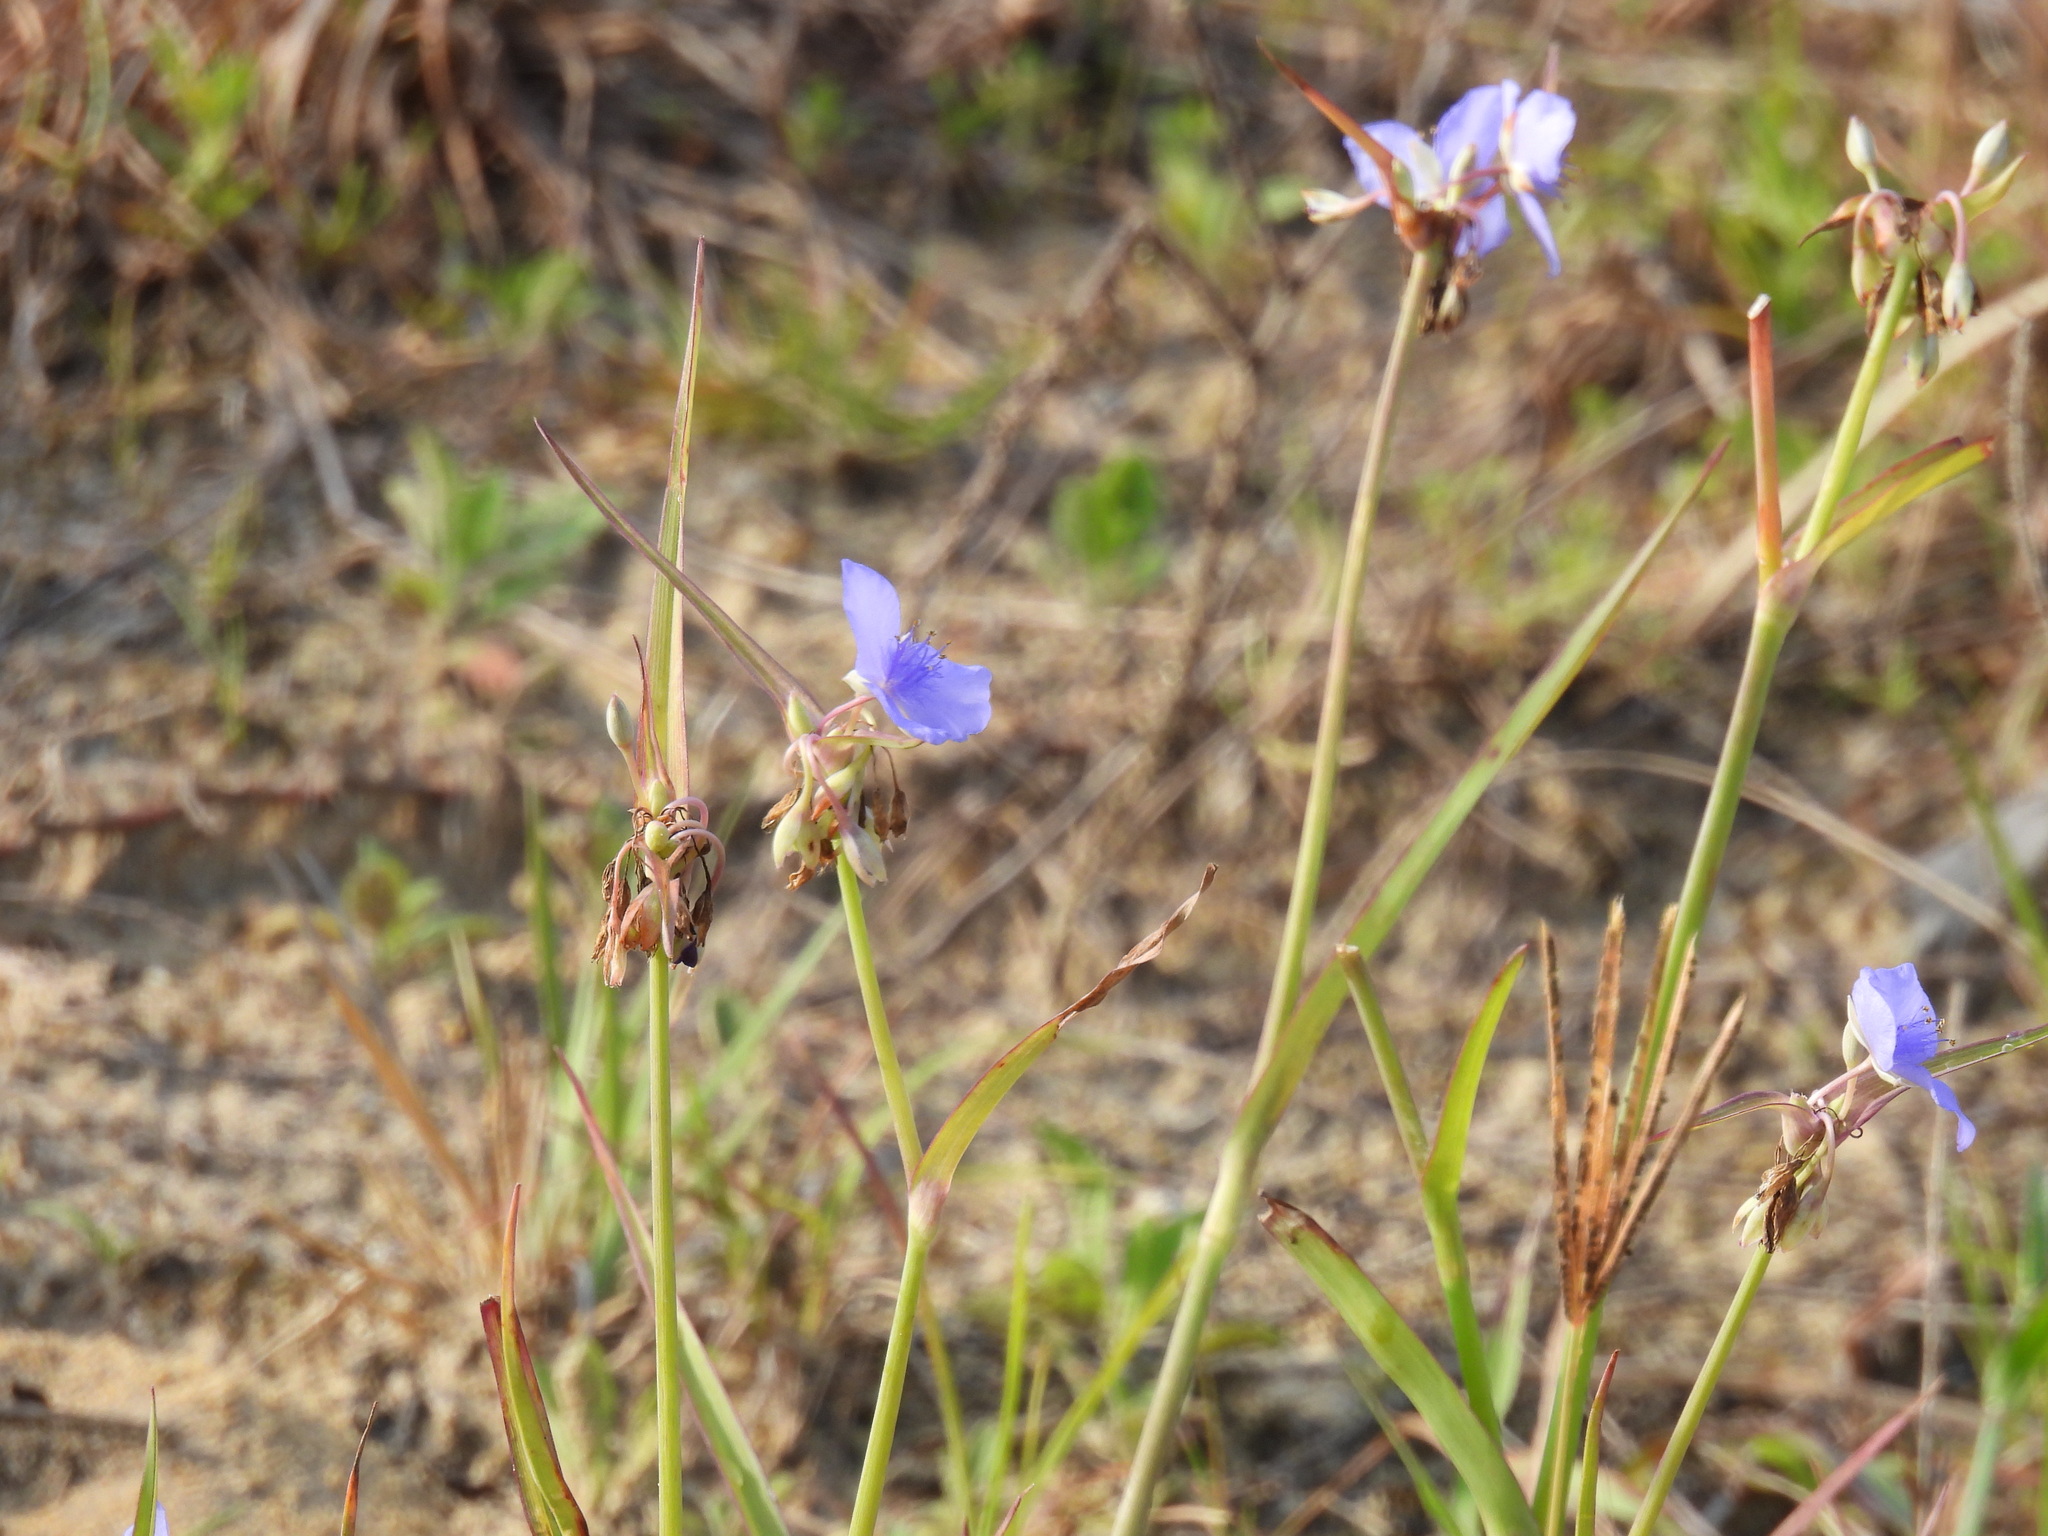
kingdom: Plantae
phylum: Tracheophyta
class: Liliopsida
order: Commelinales
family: Commelinaceae
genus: Tradescantia
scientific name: Tradescantia ohiensis
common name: Ohio spiderwort
